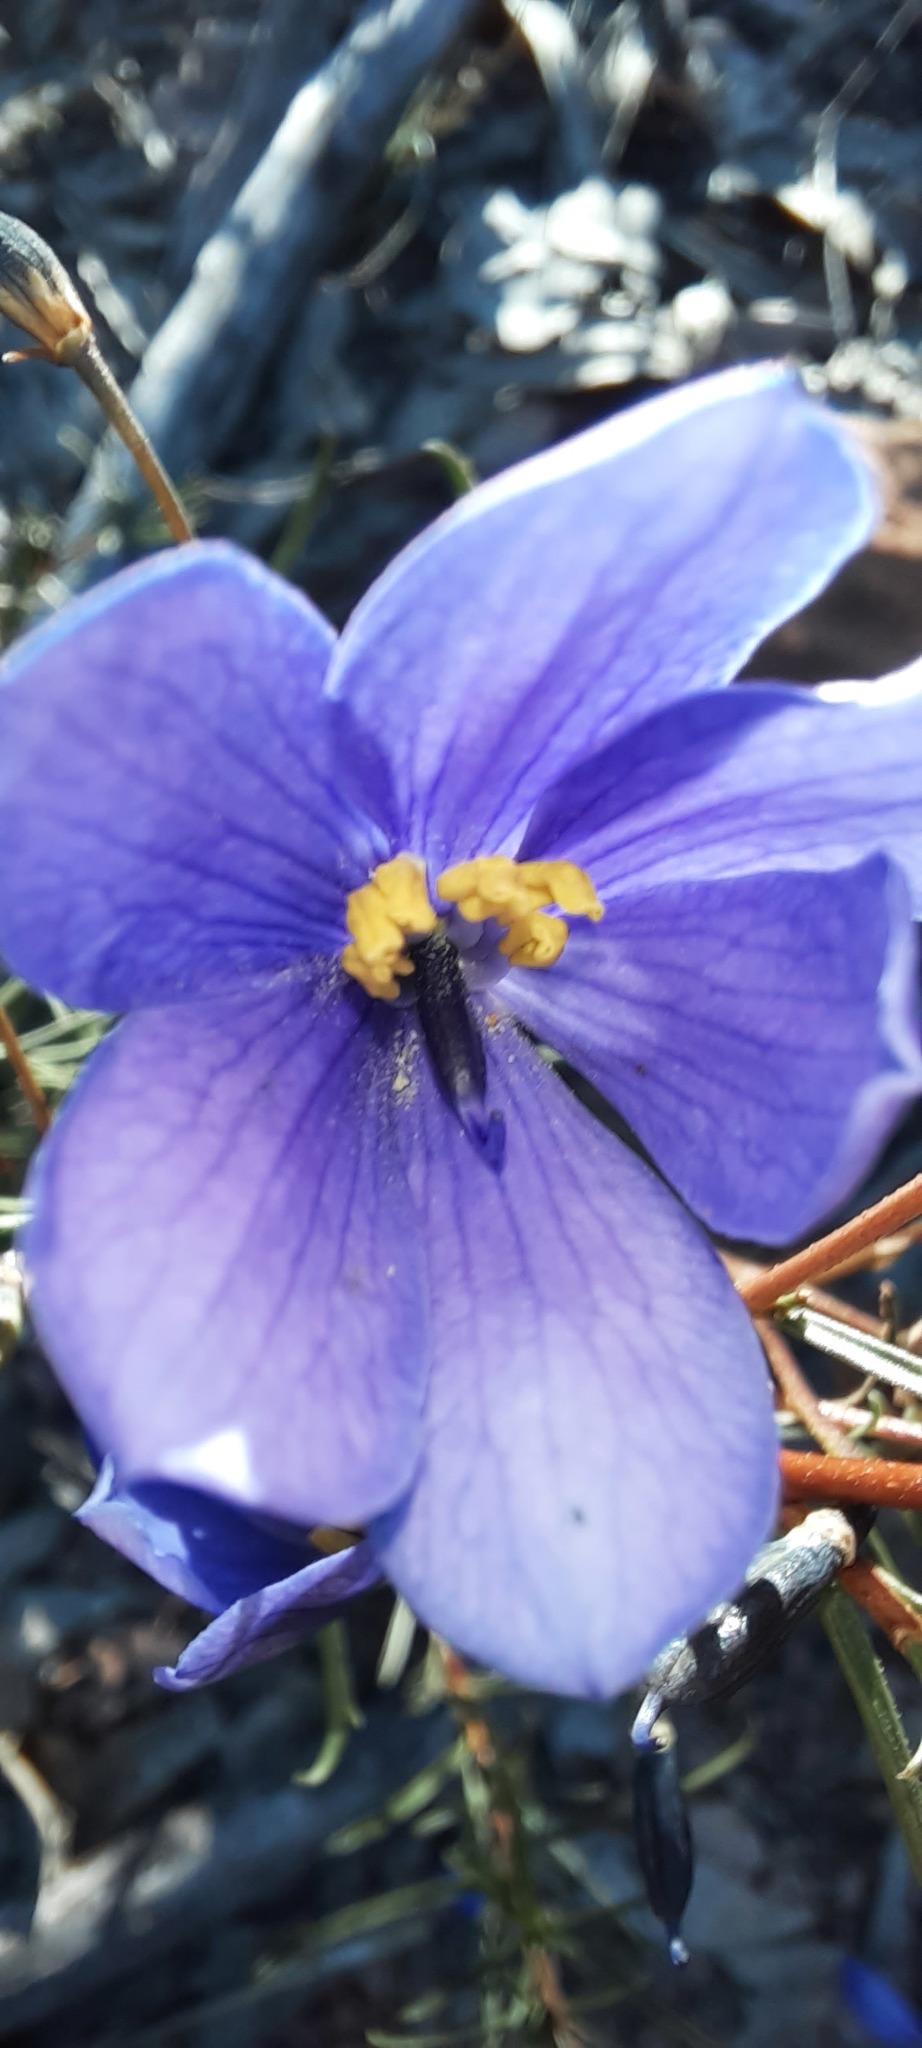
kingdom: Plantae
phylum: Tracheophyta
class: Magnoliopsida
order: Apiales
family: Pittosporaceae
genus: Cheiranthera
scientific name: Cheiranthera linearis
